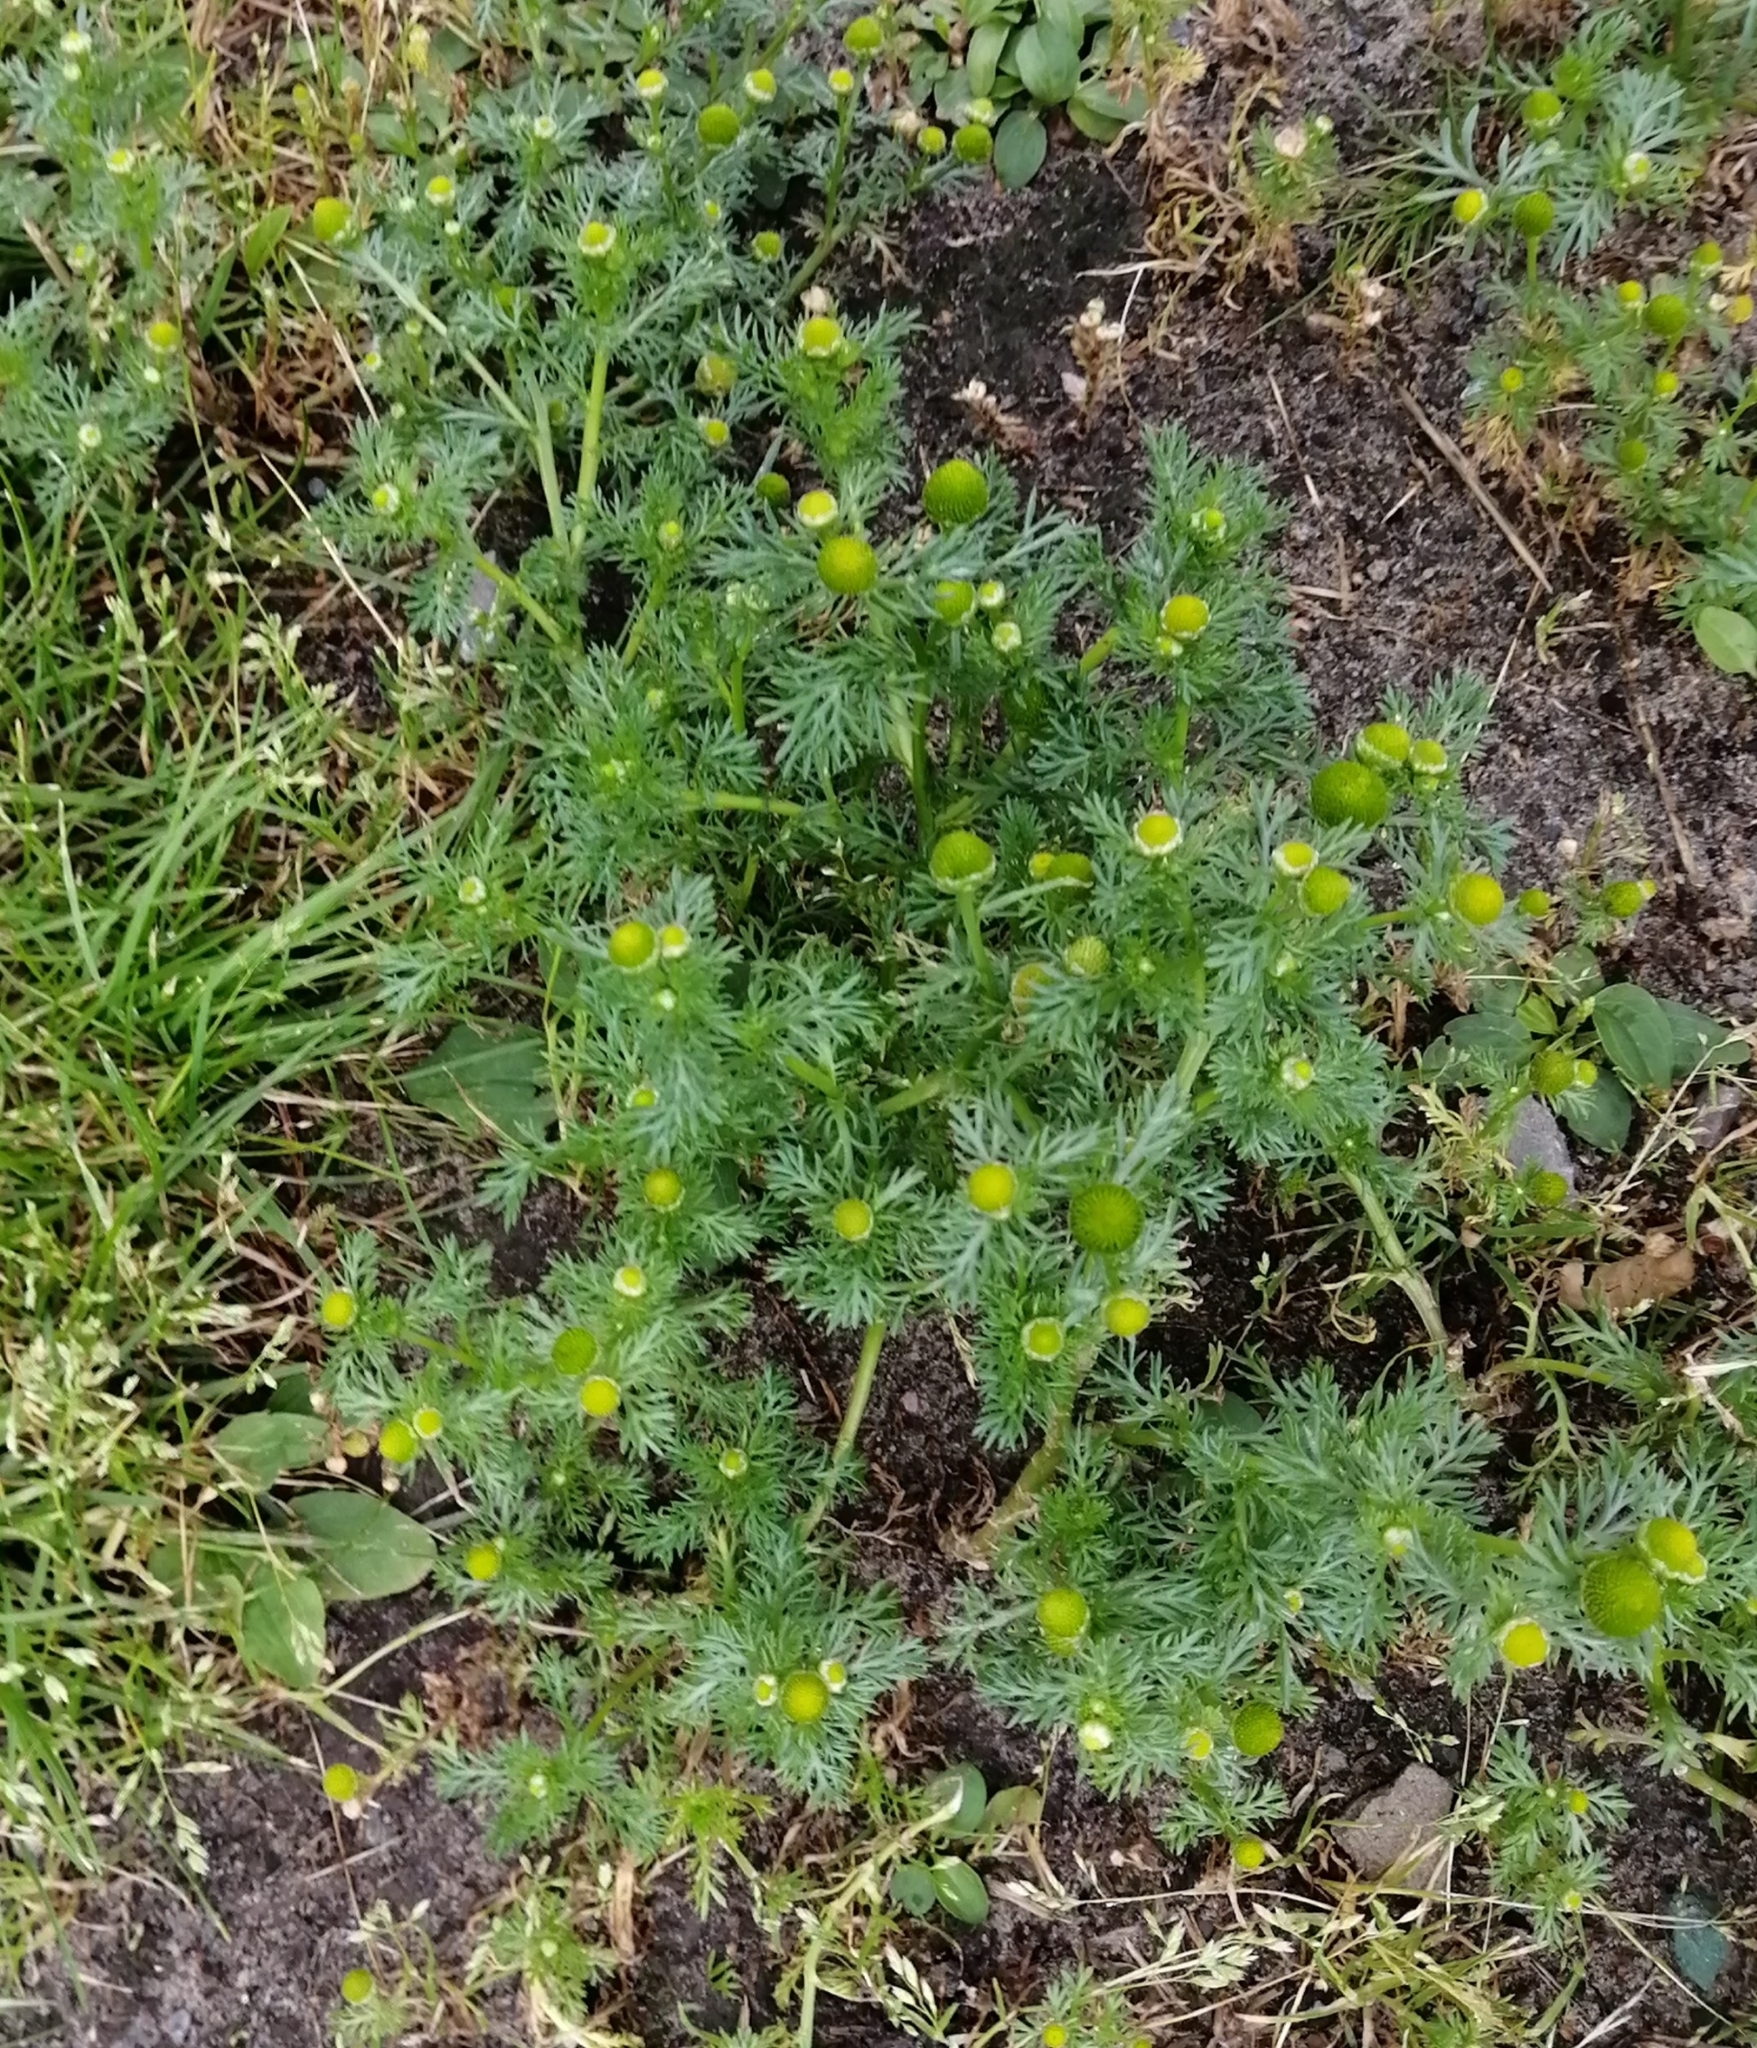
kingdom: Plantae
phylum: Tracheophyta
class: Magnoliopsida
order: Asterales
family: Asteraceae
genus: Matricaria
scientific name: Matricaria discoidea
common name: Disc mayweed
